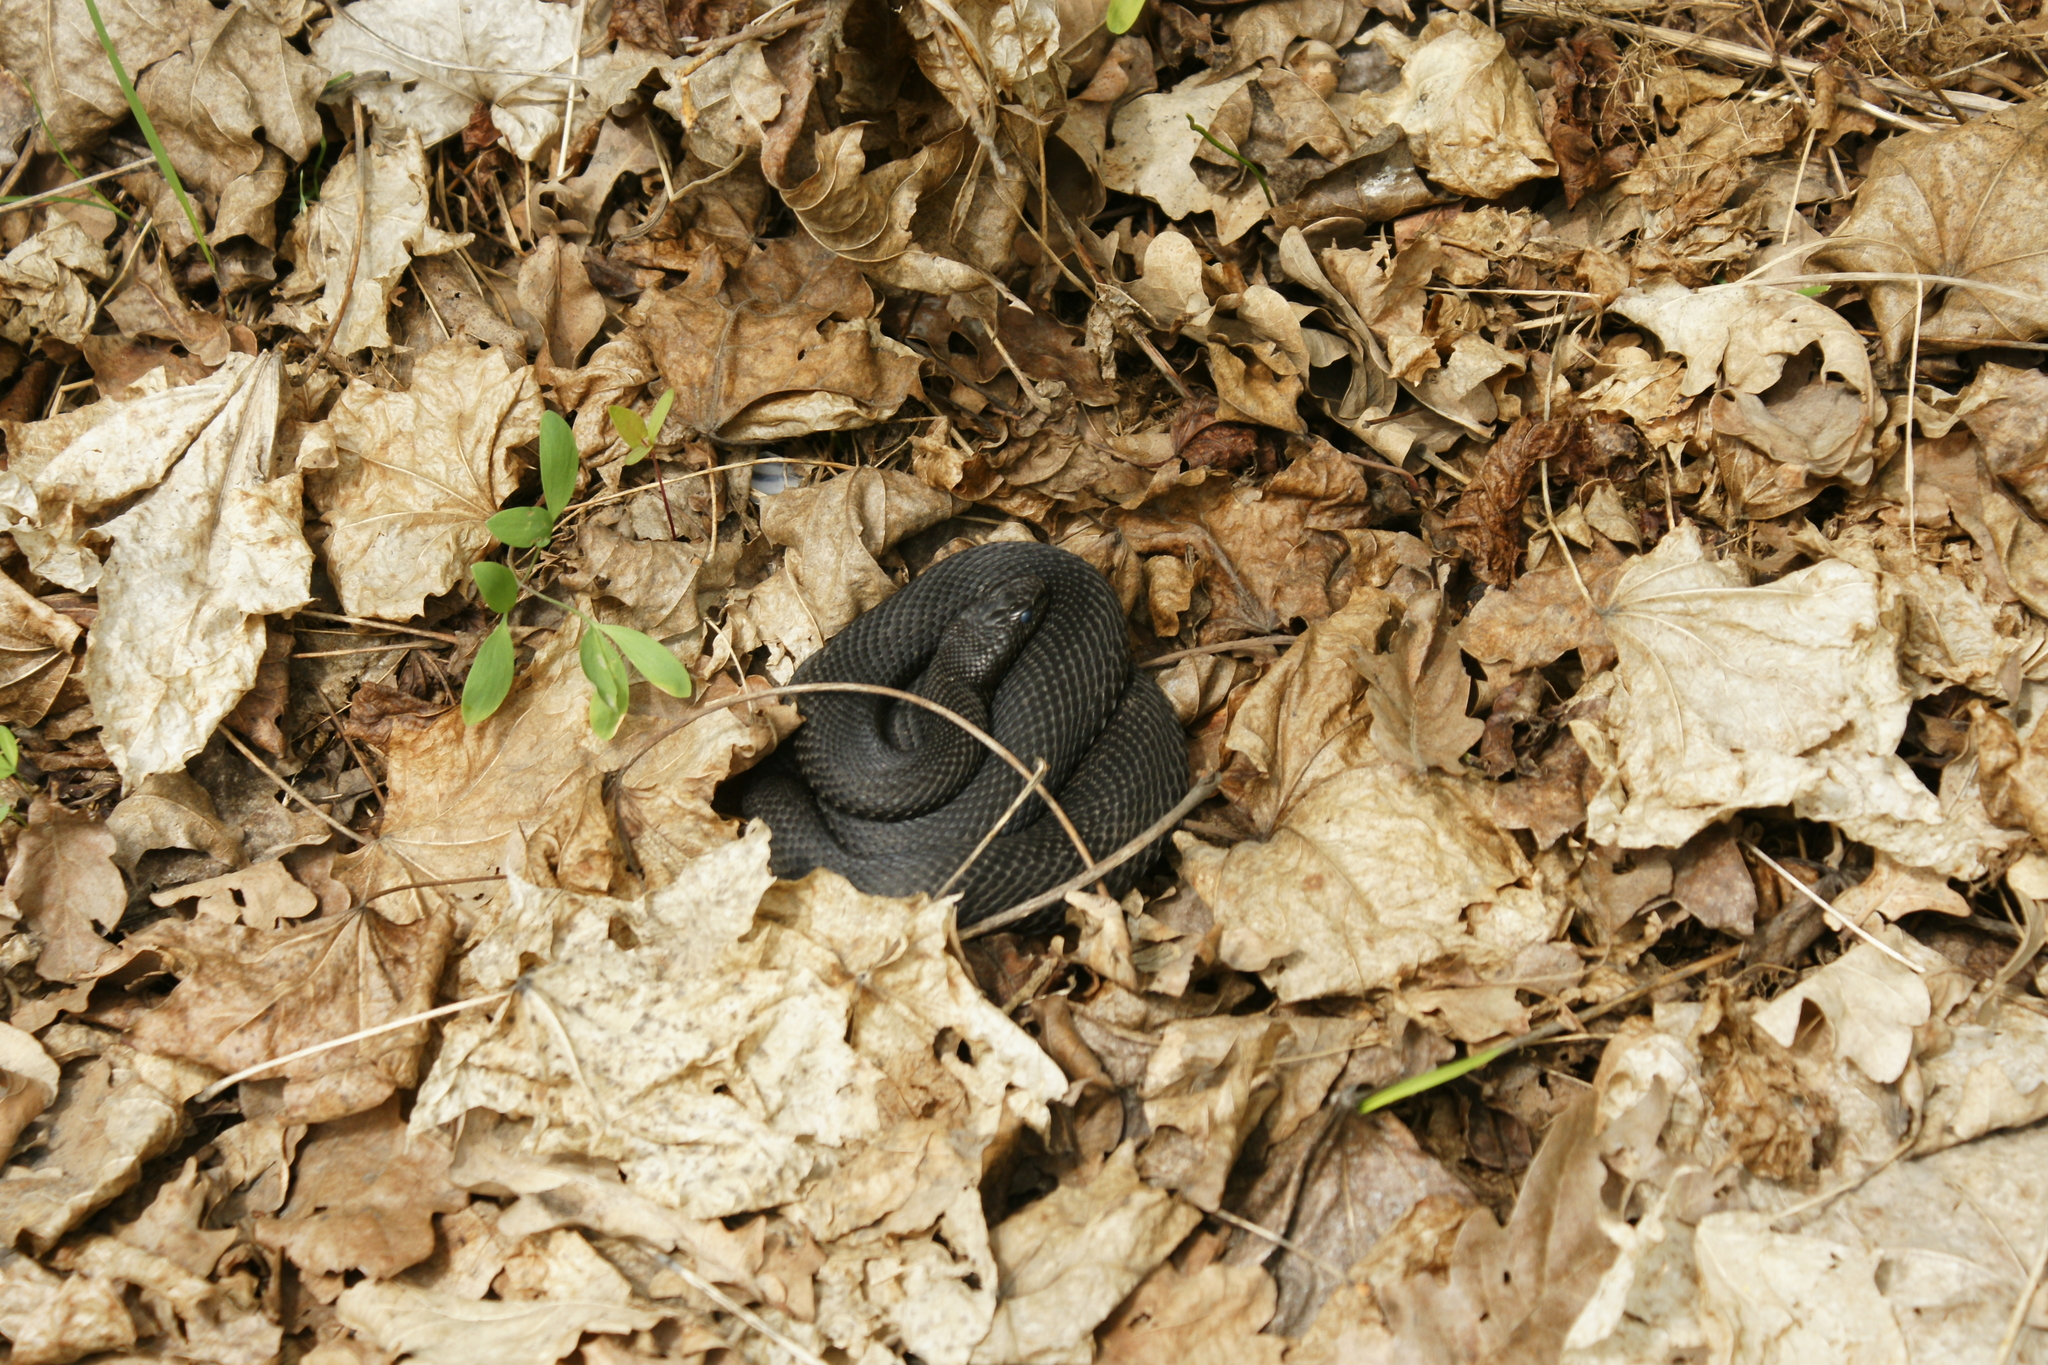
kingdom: Animalia
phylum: Chordata
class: Squamata
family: Viperidae
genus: Vipera
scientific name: Vipera nikolskii
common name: Adder
